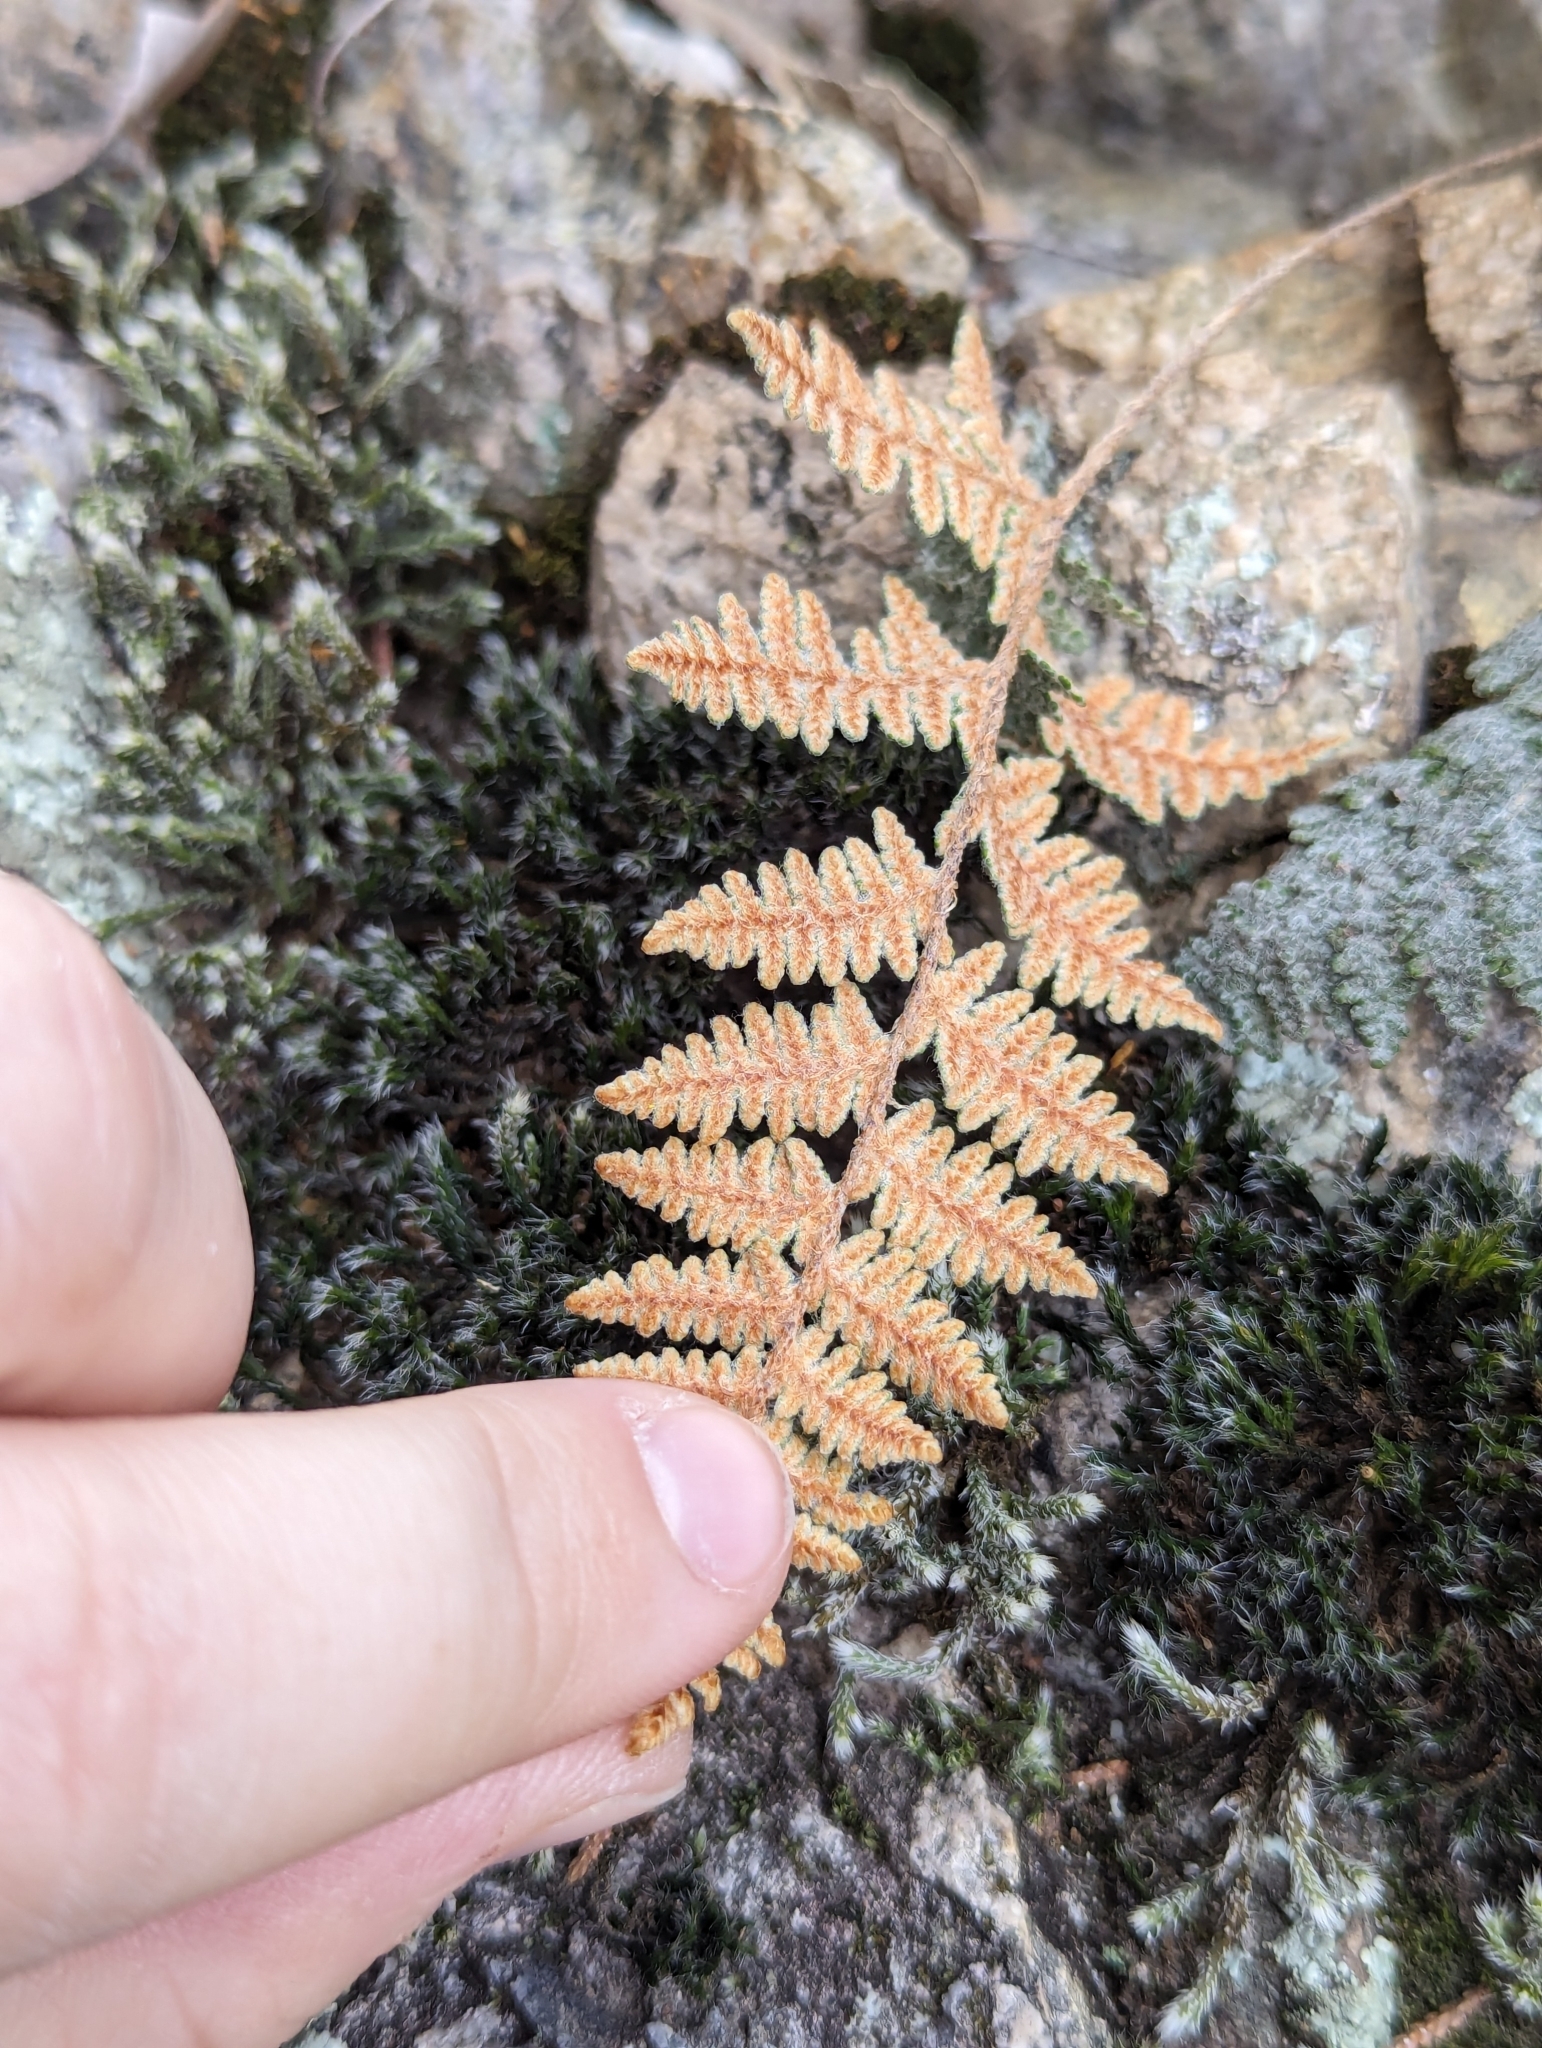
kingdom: Plantae
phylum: Tracheophyta
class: Polypodiopsida
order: Polypodiales
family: Pteridaceae
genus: Myriopteris
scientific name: Myriopteris lindheimeri
